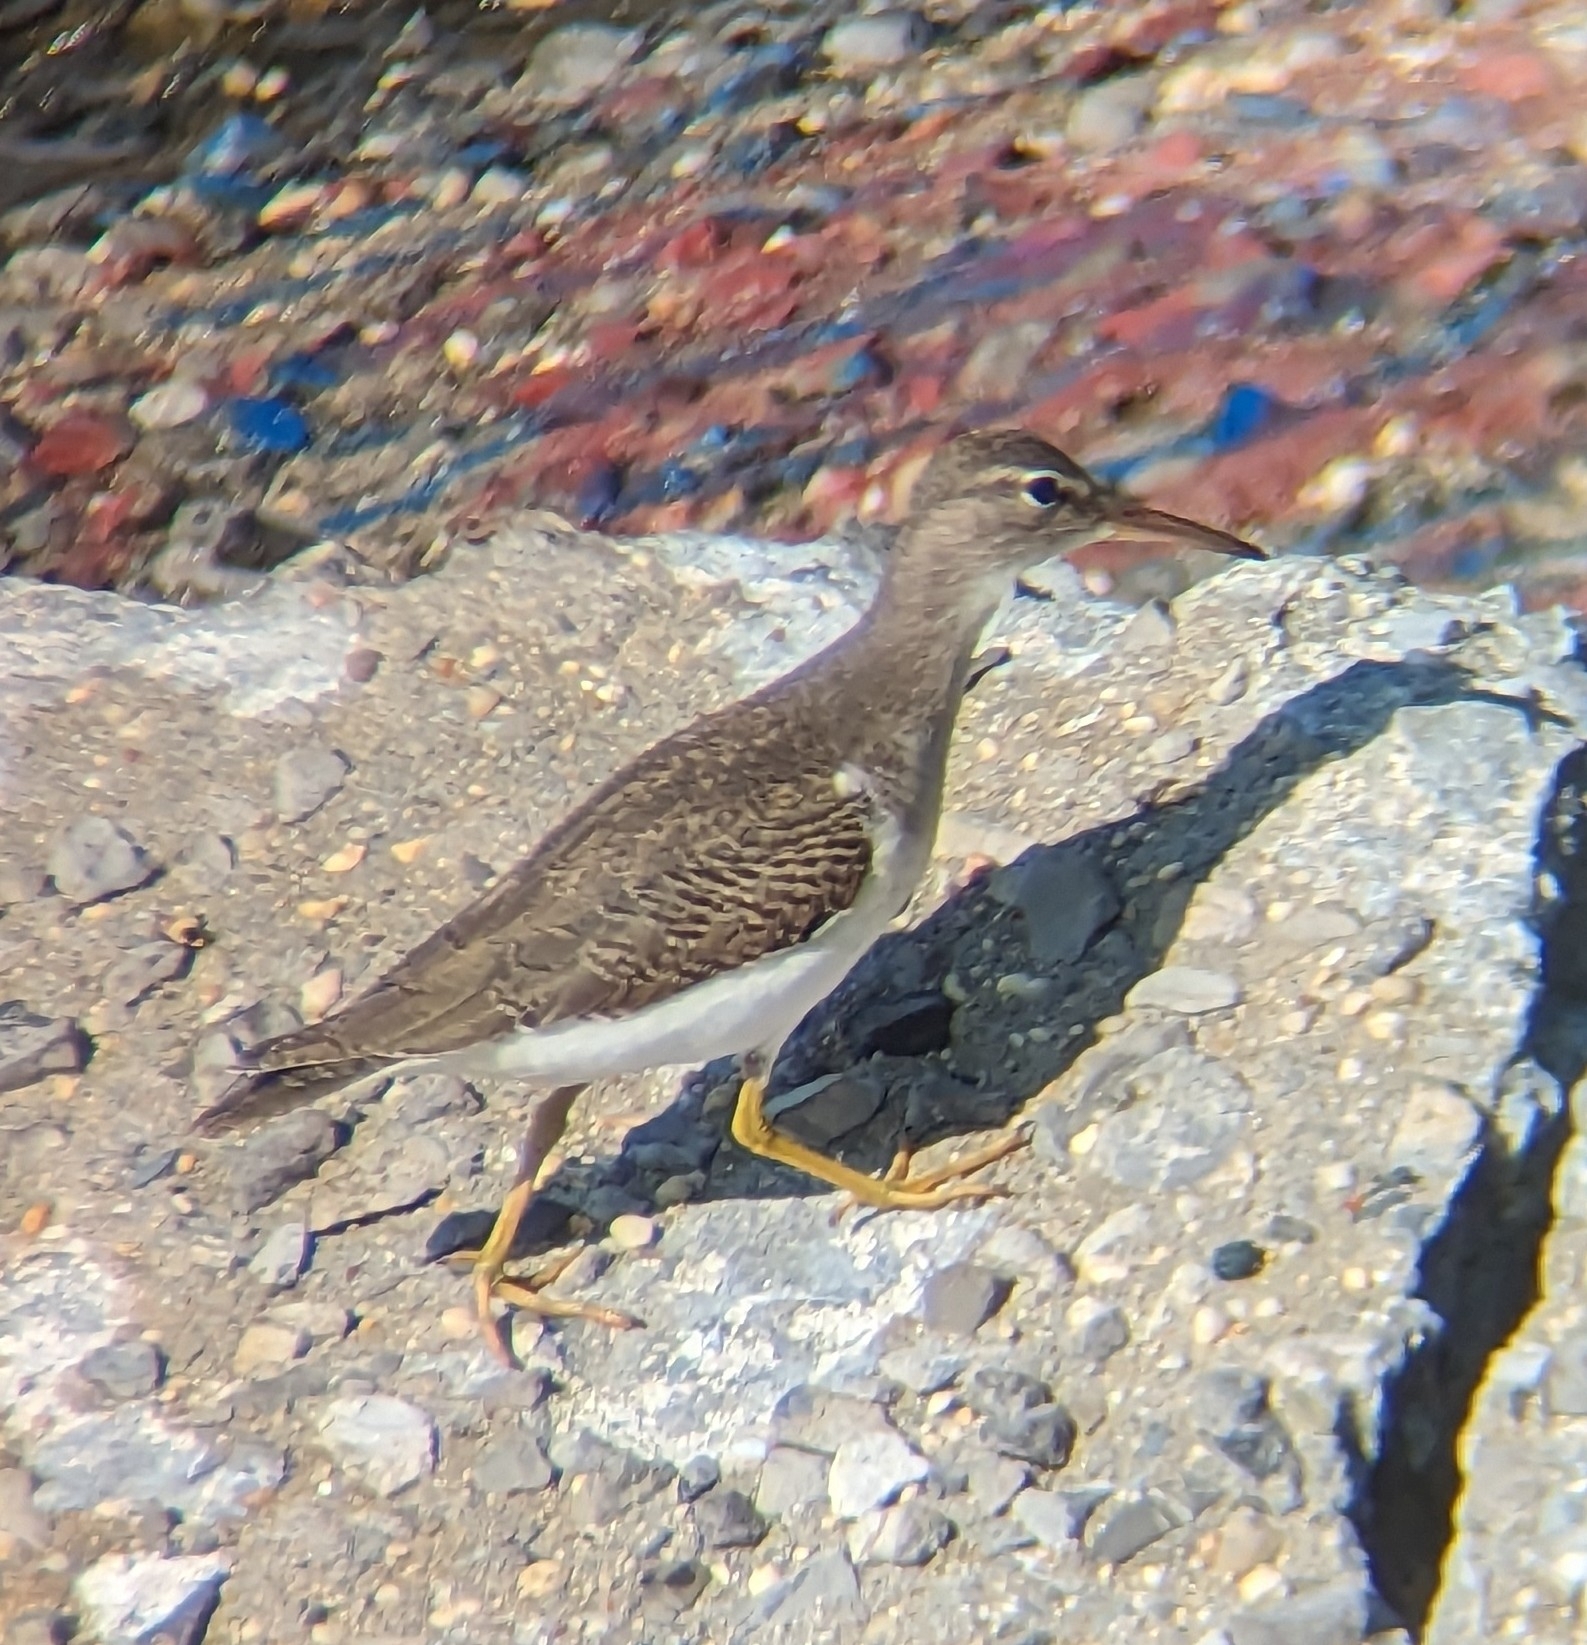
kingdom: Animalia
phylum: Chordata
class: Aves
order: Charadriiformes
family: Scolopacidae
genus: Actitis
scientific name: Actitis macularius
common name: Spotted sandpiper
